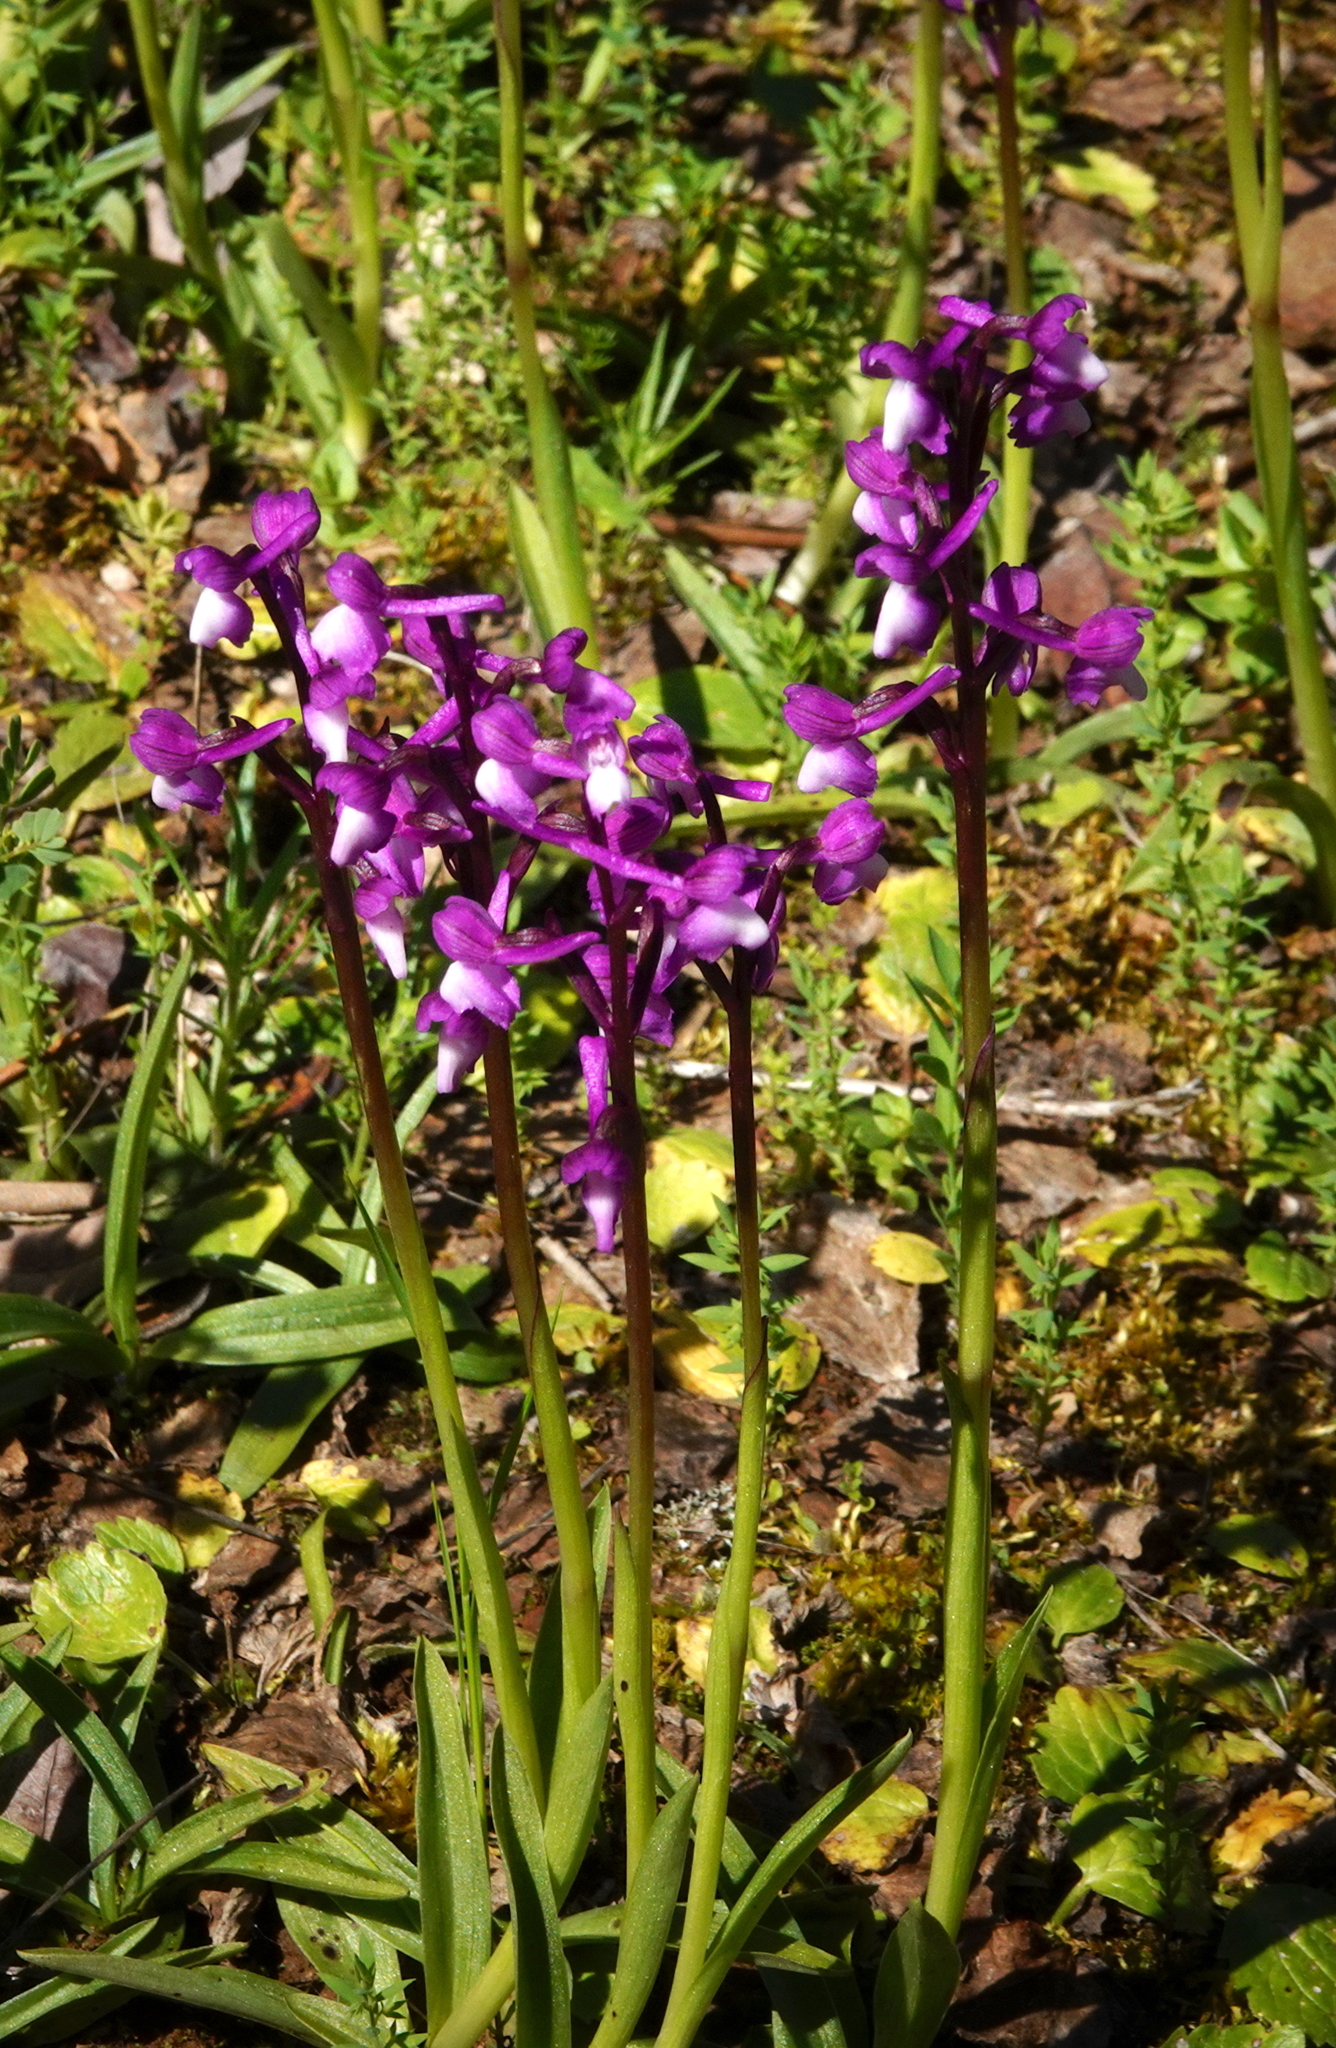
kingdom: Plantae
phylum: Tracheophyta
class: Liliopsida
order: Asparagales
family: Orchidaceae
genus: Anacamptis
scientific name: Anacamptis morio
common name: Green-winged orchid
